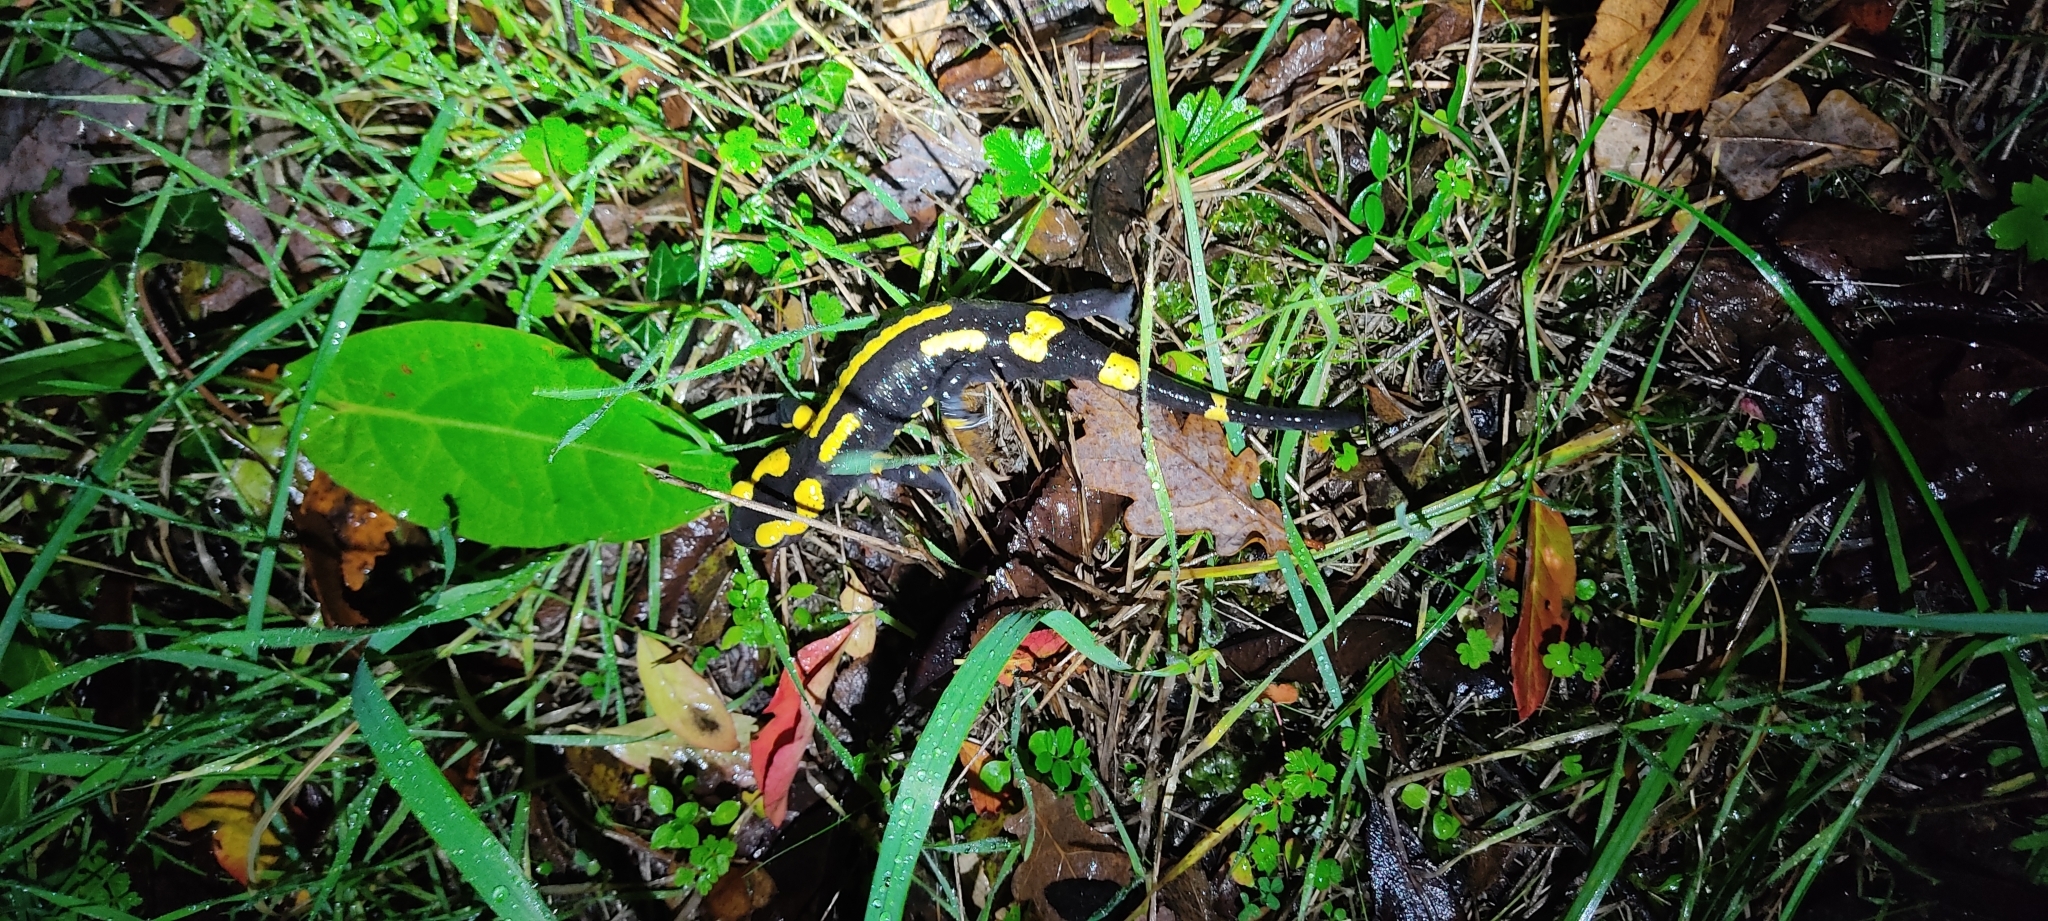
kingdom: Animalia
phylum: Chordata
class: Amphibia
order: Caudata
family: Salamandridae
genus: Salamandra
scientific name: Salamandra salamandra
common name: Fire salamander
